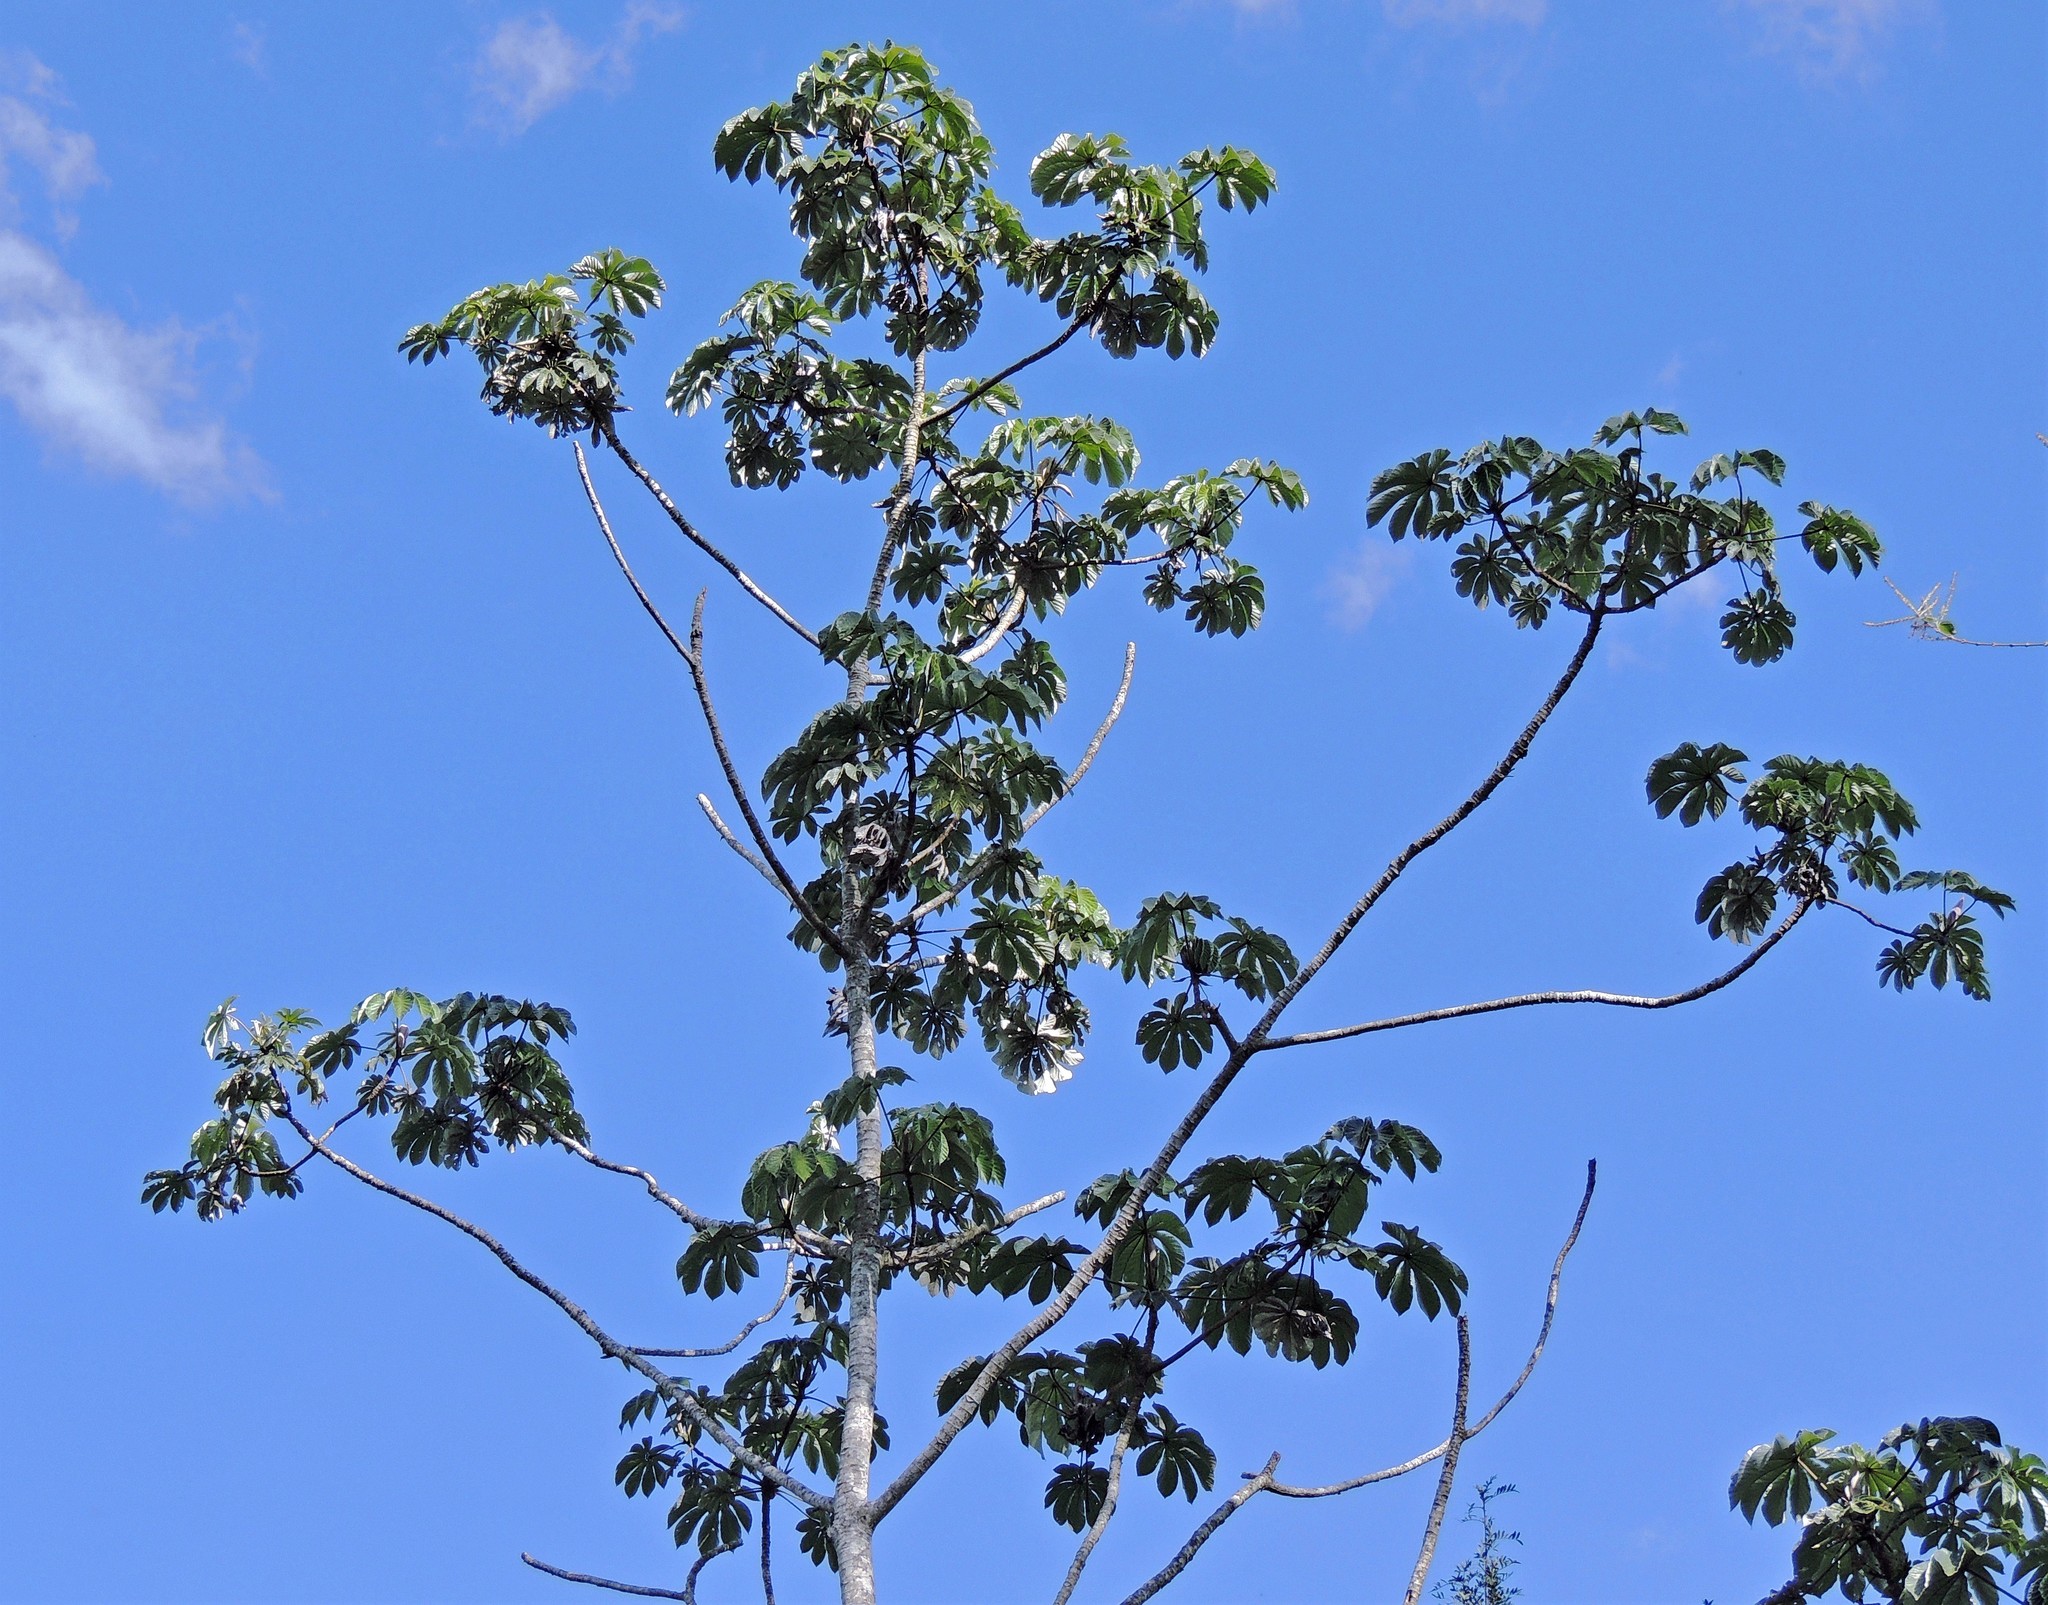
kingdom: Plantae
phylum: Tracheophyta
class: Magnoliopsida
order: Rosales
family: Urticaceae
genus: Cecropia
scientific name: Cecropia pachystachya
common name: Ambay pumpwood
